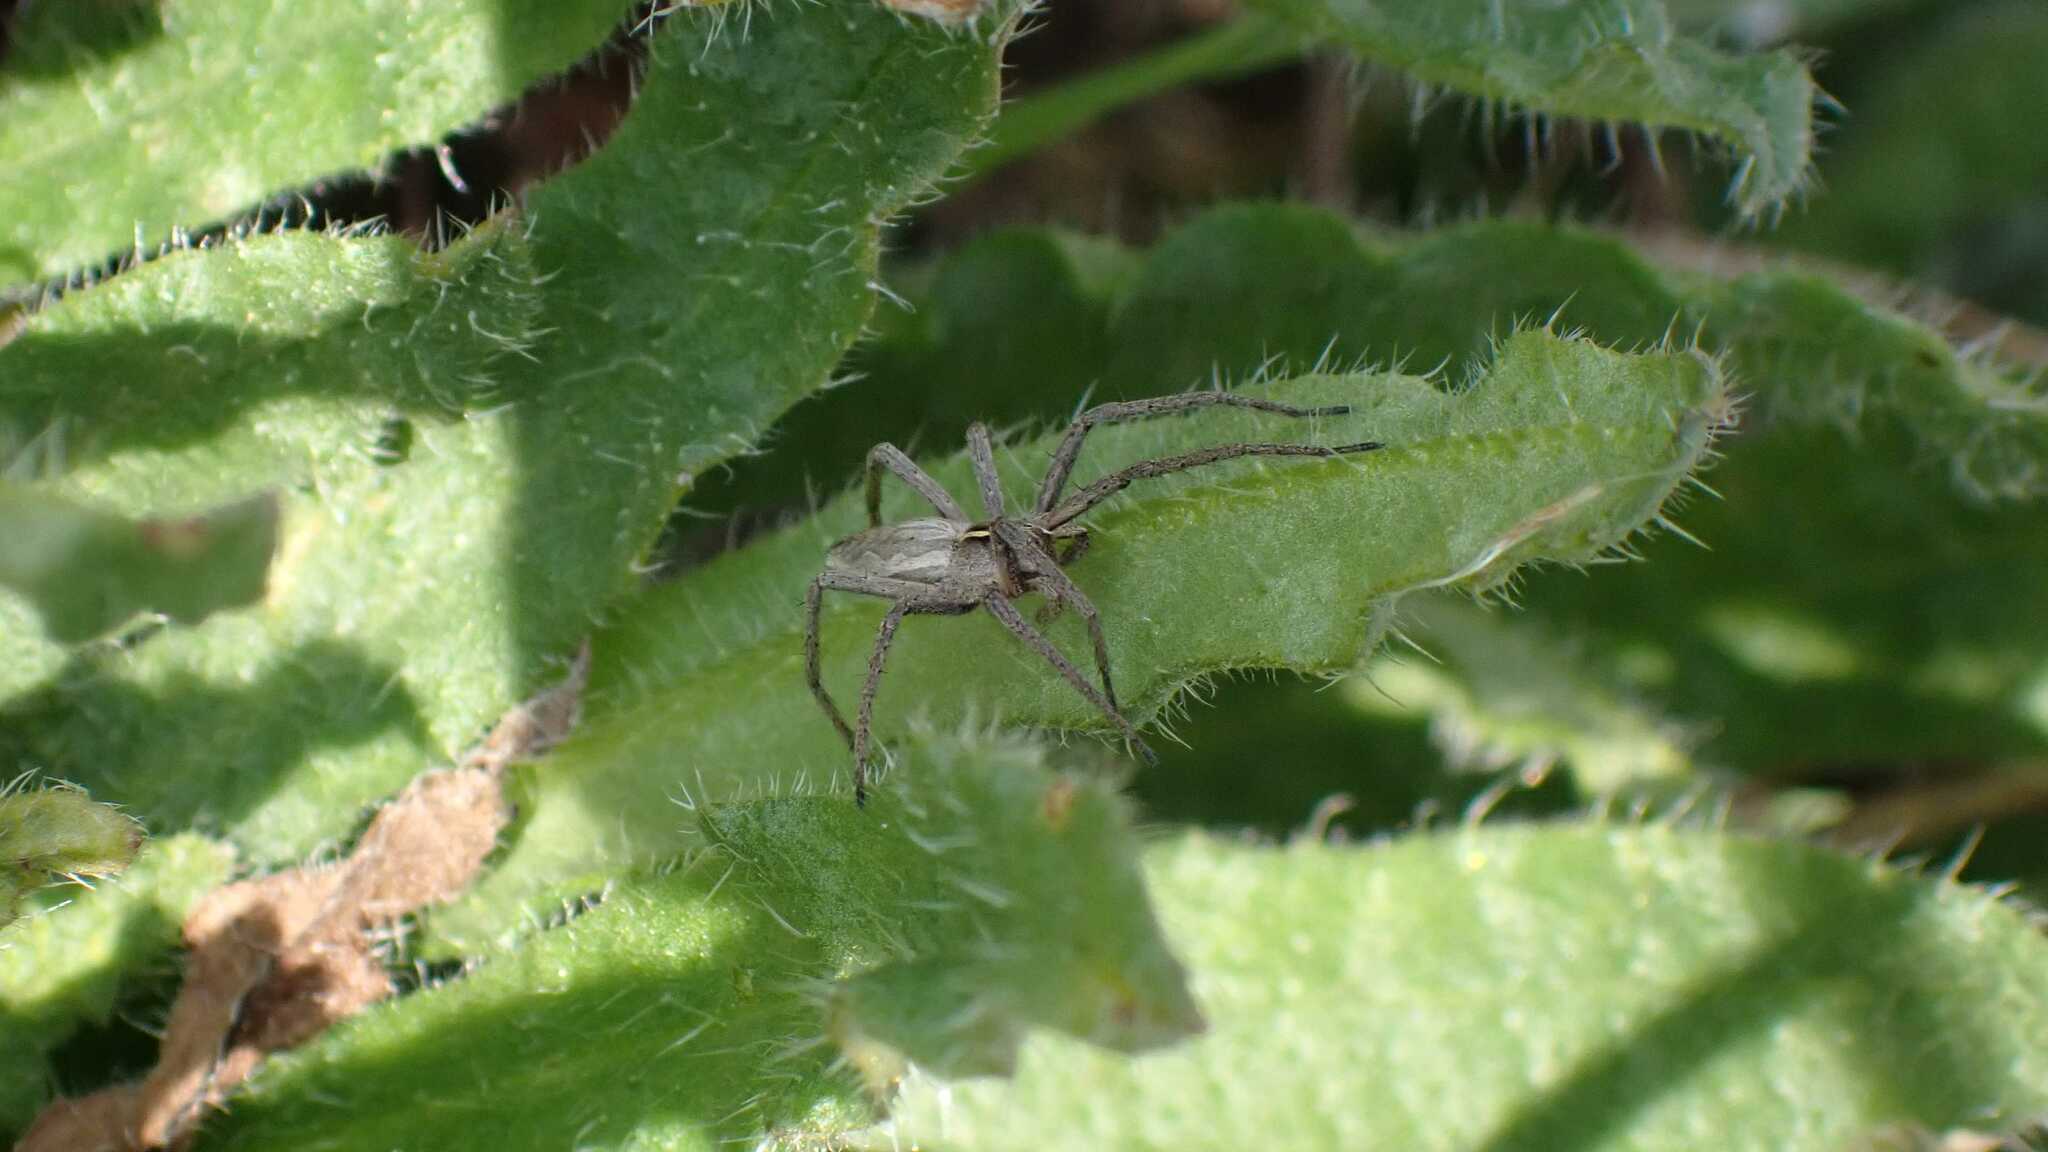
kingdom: Animalia
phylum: Arthropoda
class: Arachnida
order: Araneae
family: Pisauridae
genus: Pisaura
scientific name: Pisaura mirabilis
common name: Tent spider
